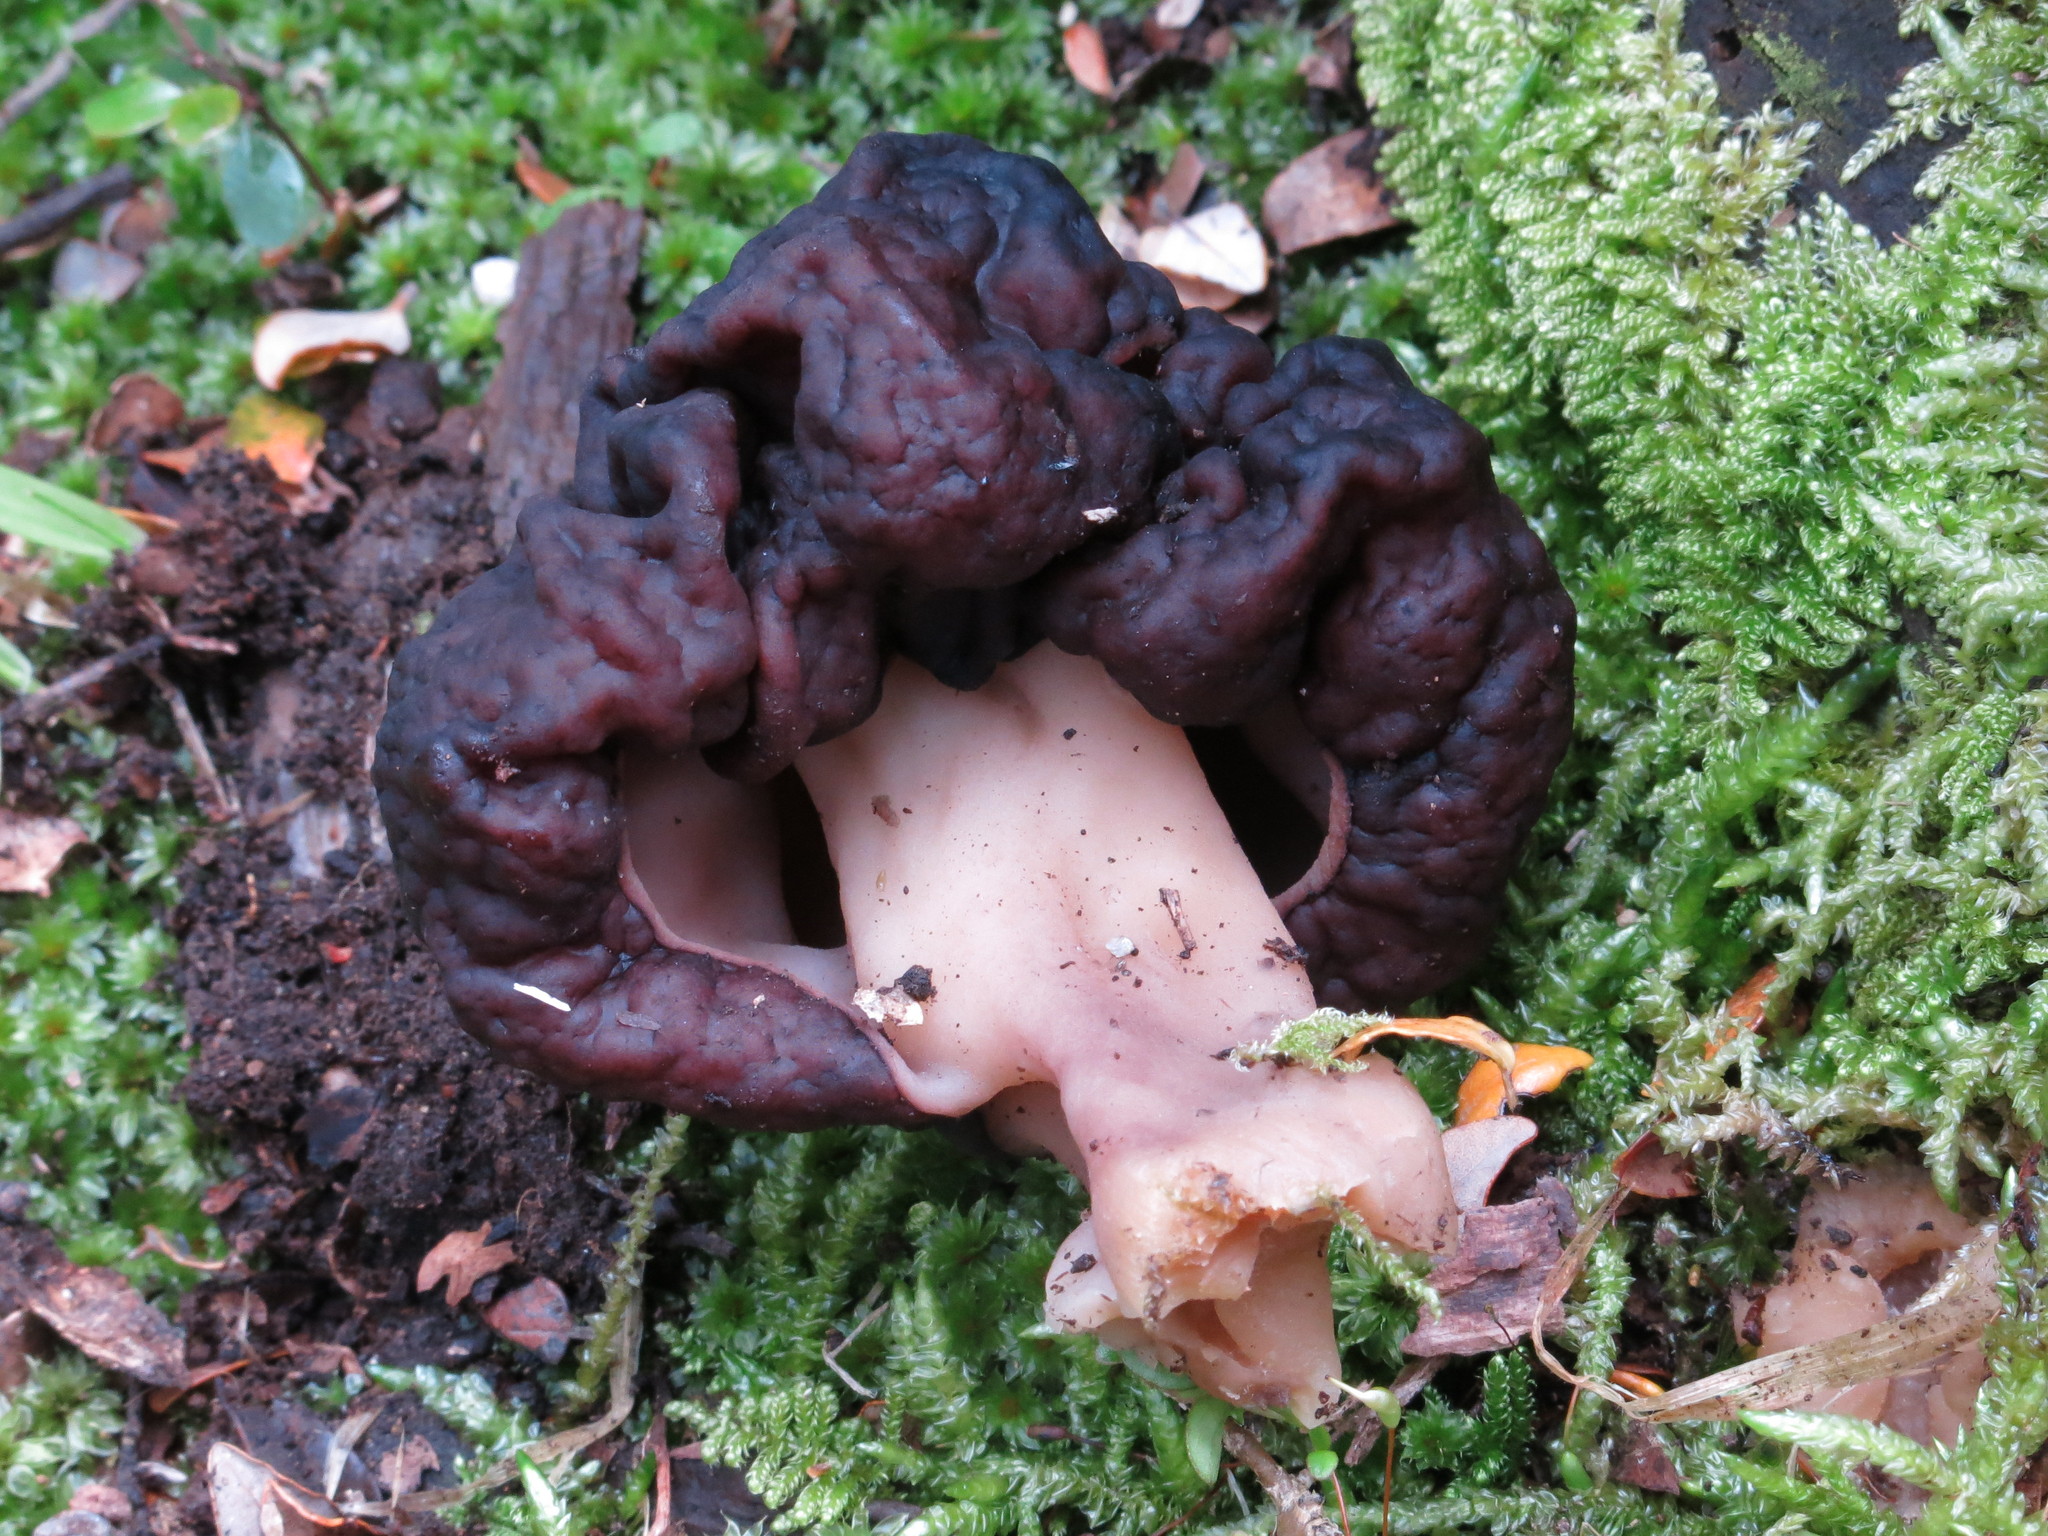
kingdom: Fungi
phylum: Ascomycota
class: Pezizomycetes
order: Pezizales
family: Discinaceae
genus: Gyromitra
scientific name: Gyromitra tasmanica
